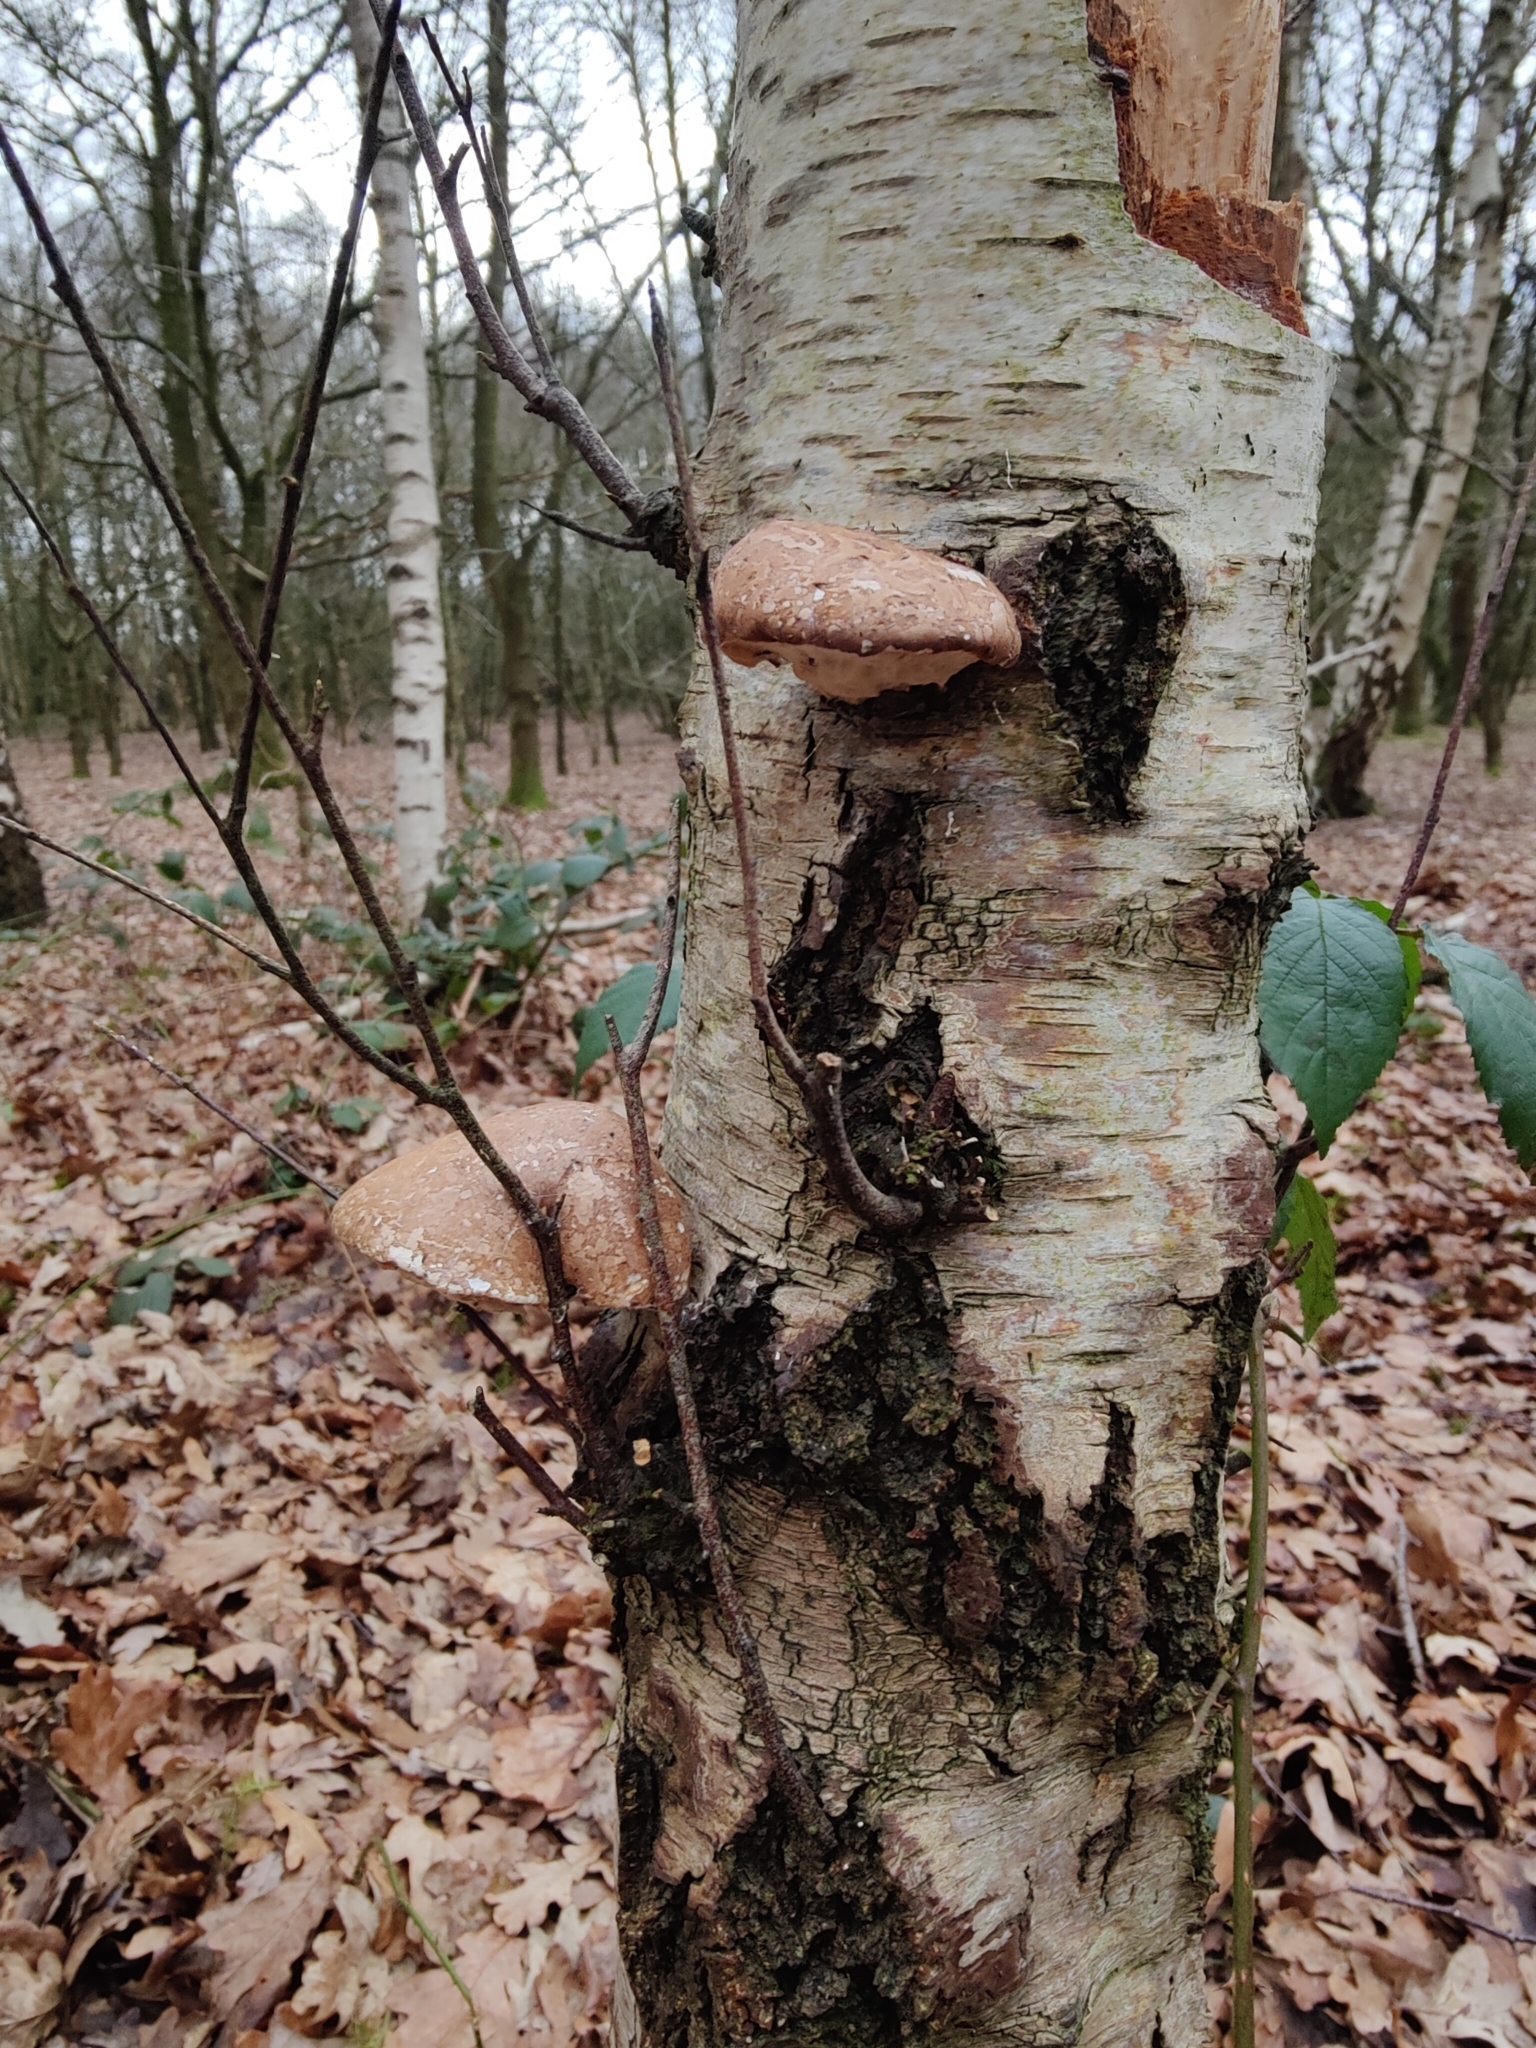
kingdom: Fungi
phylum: Basidiomycota
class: Agaricomycetes
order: Polyporales
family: Fomitopsidaceae
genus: Fomitopsis
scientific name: Fomitopsis betulina
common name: Birch polypore
